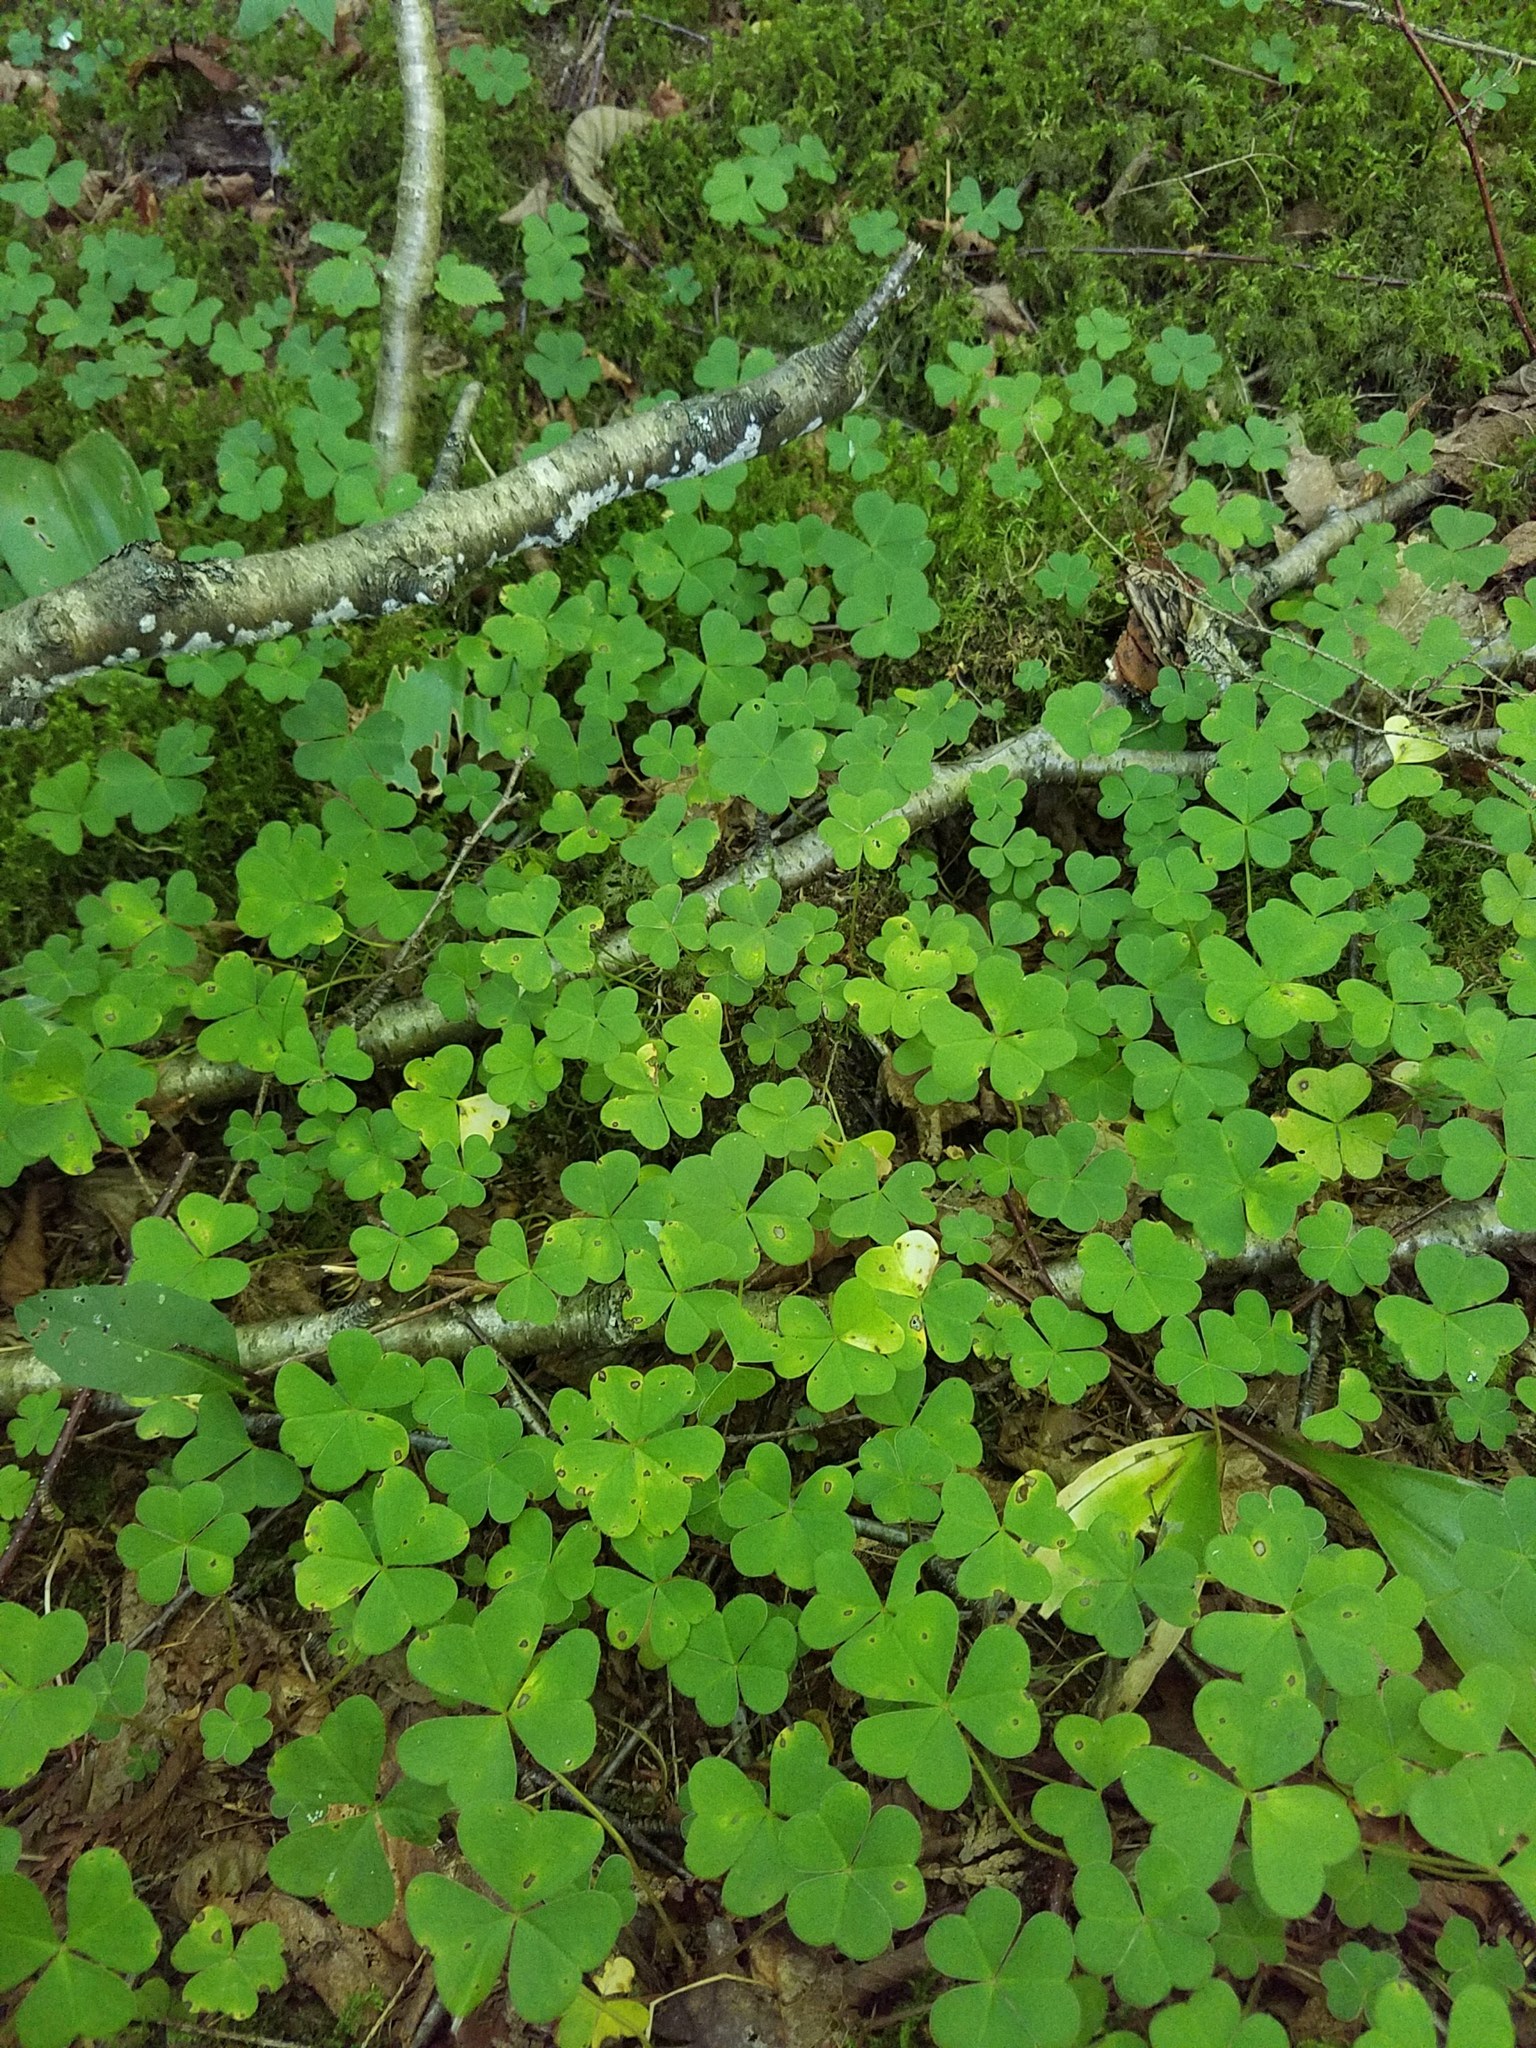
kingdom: Plantae
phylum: Tracheophyta
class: Magnoliopsida
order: Oxalidales
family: Oxalidaceae
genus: Oxalis
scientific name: Oxalis montana
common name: American wood-sorrel
